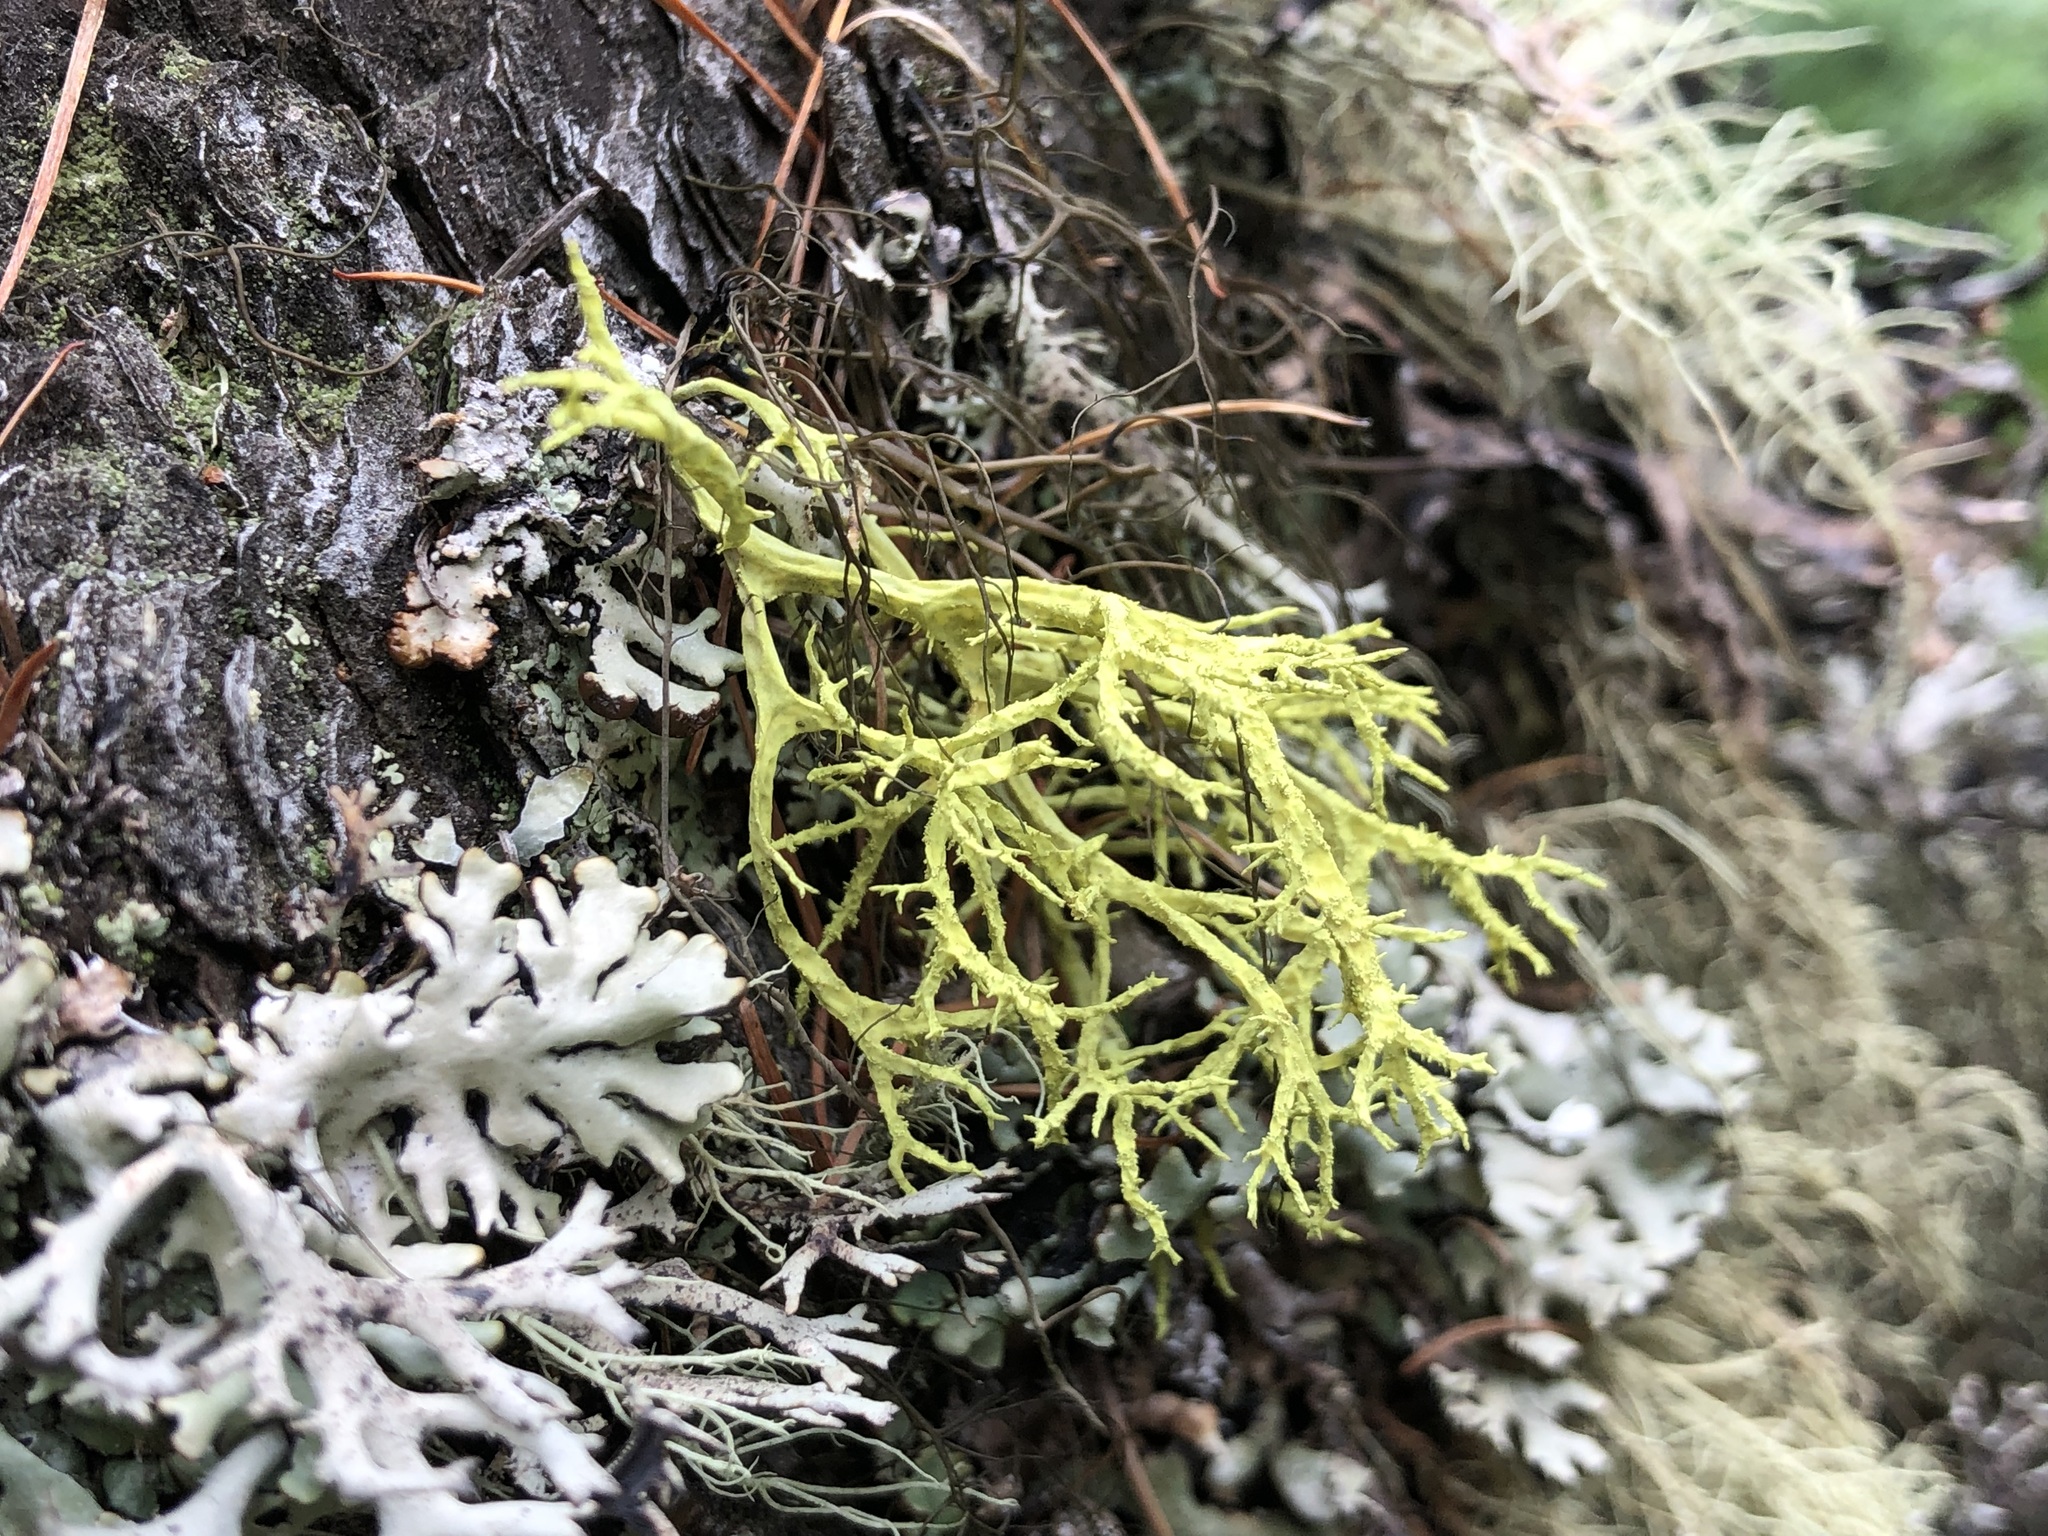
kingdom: Fungi
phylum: Ascomycota
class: Lecanoromycetes
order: Lecanorales
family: Parmeliaceae
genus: Letharia
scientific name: Letharia vulpina
